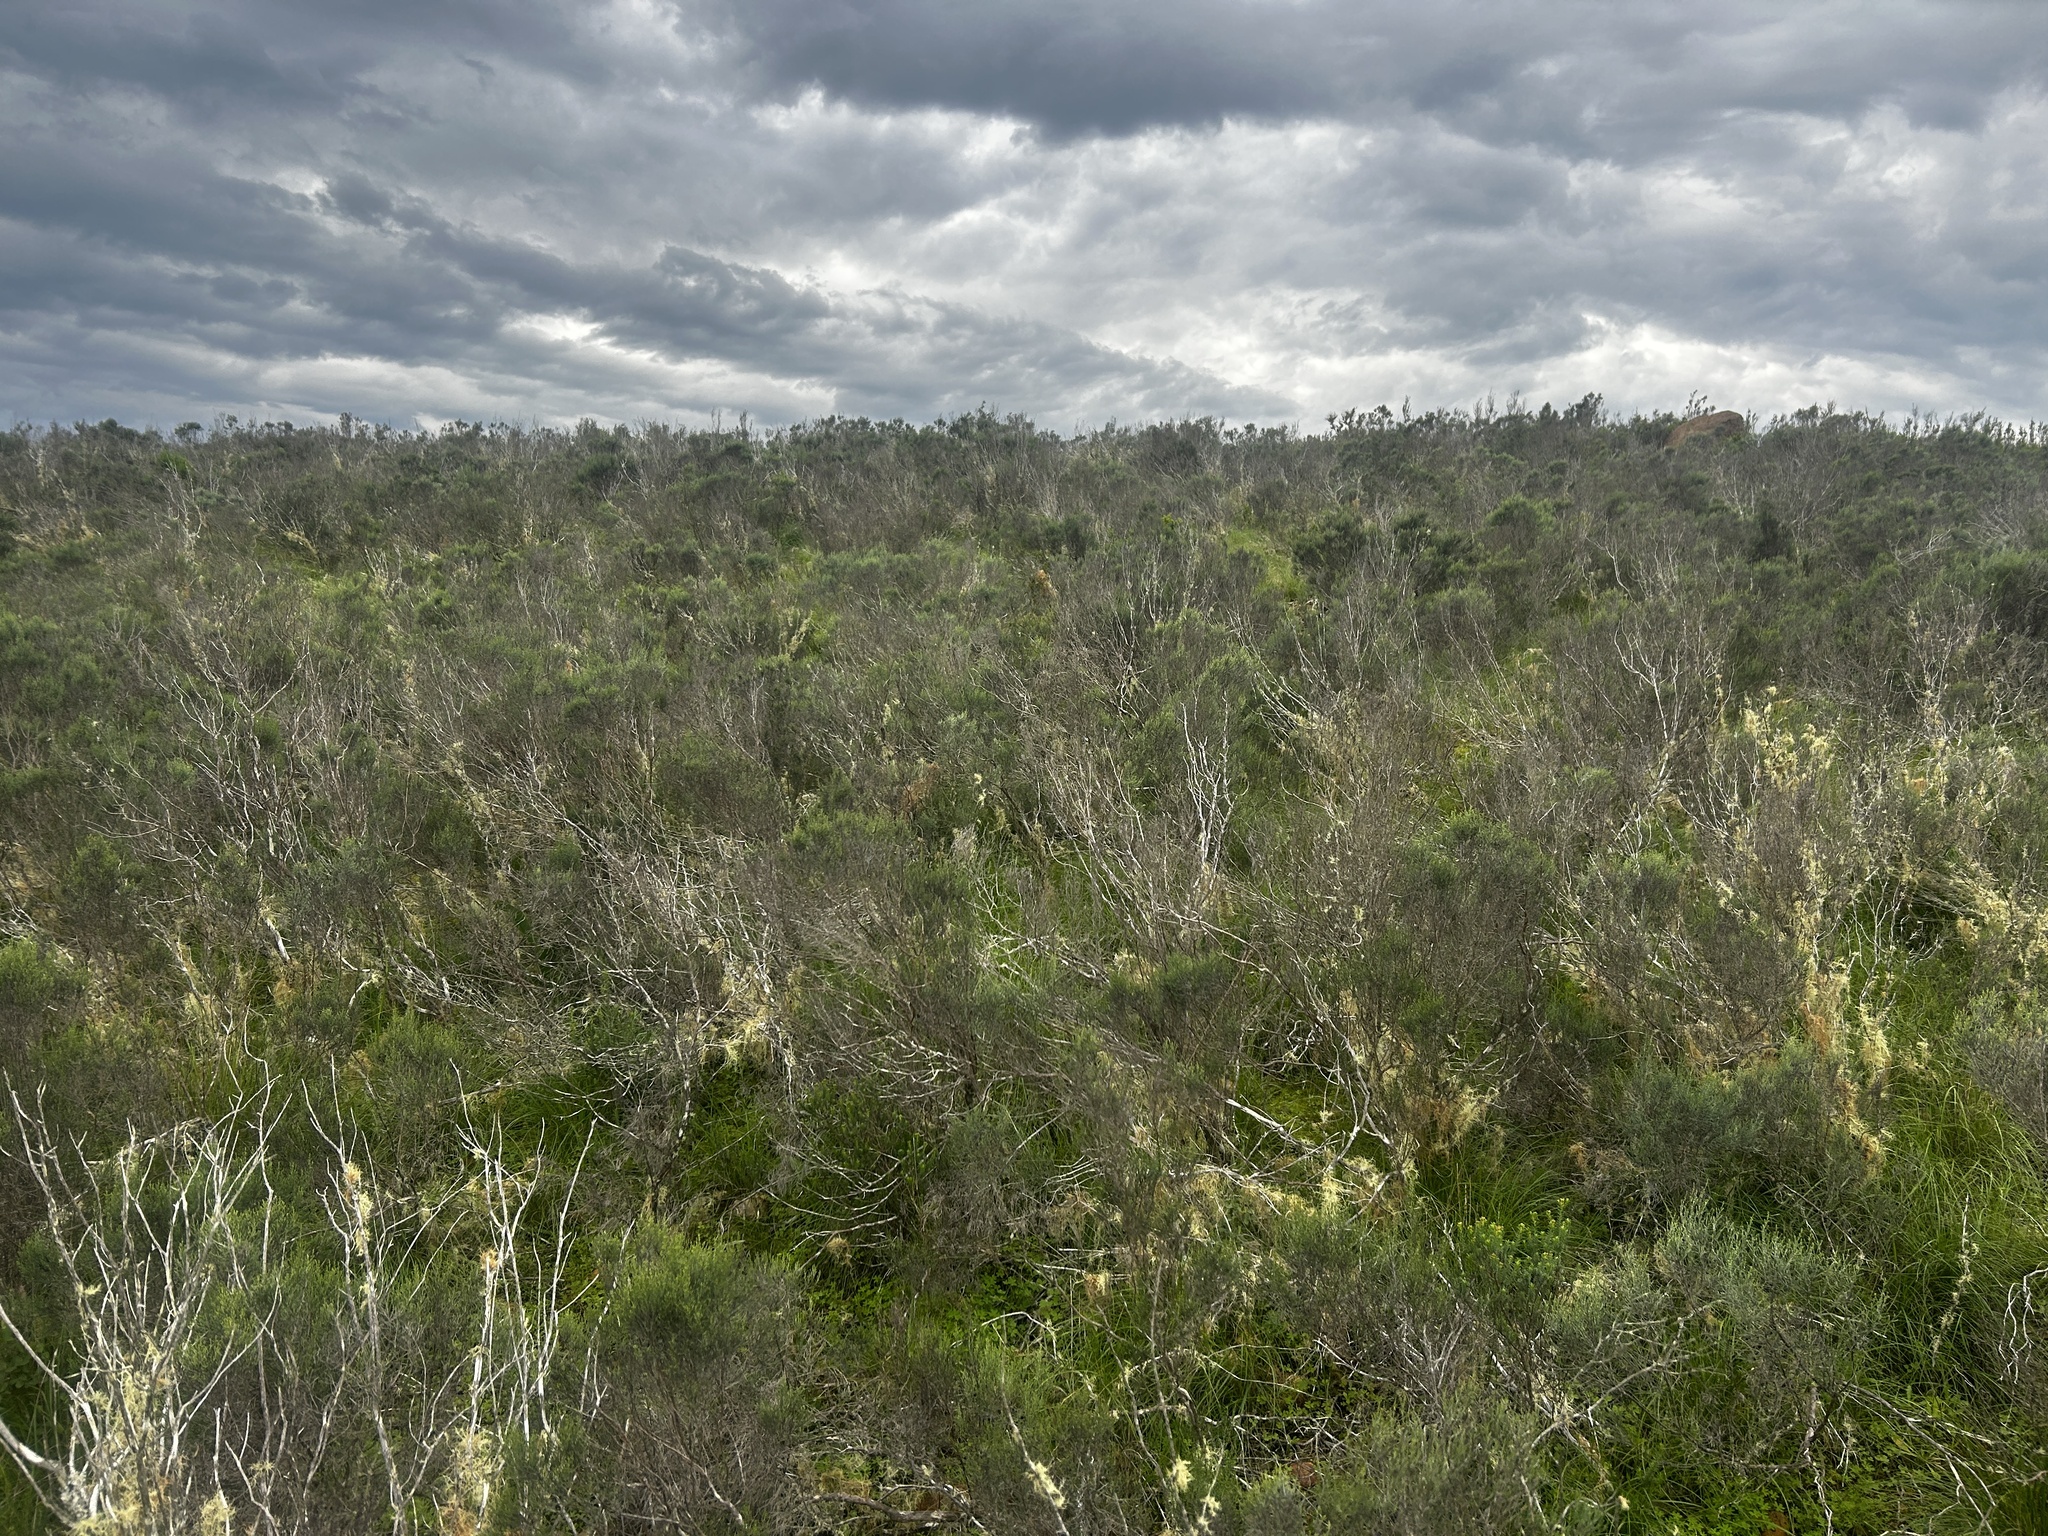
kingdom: Plantae
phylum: Tracheophyta
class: Magnoliopsida
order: Asterales
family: Asteraceae
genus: Dicerothamnus
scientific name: Dicerothamnus rhinocerotis
